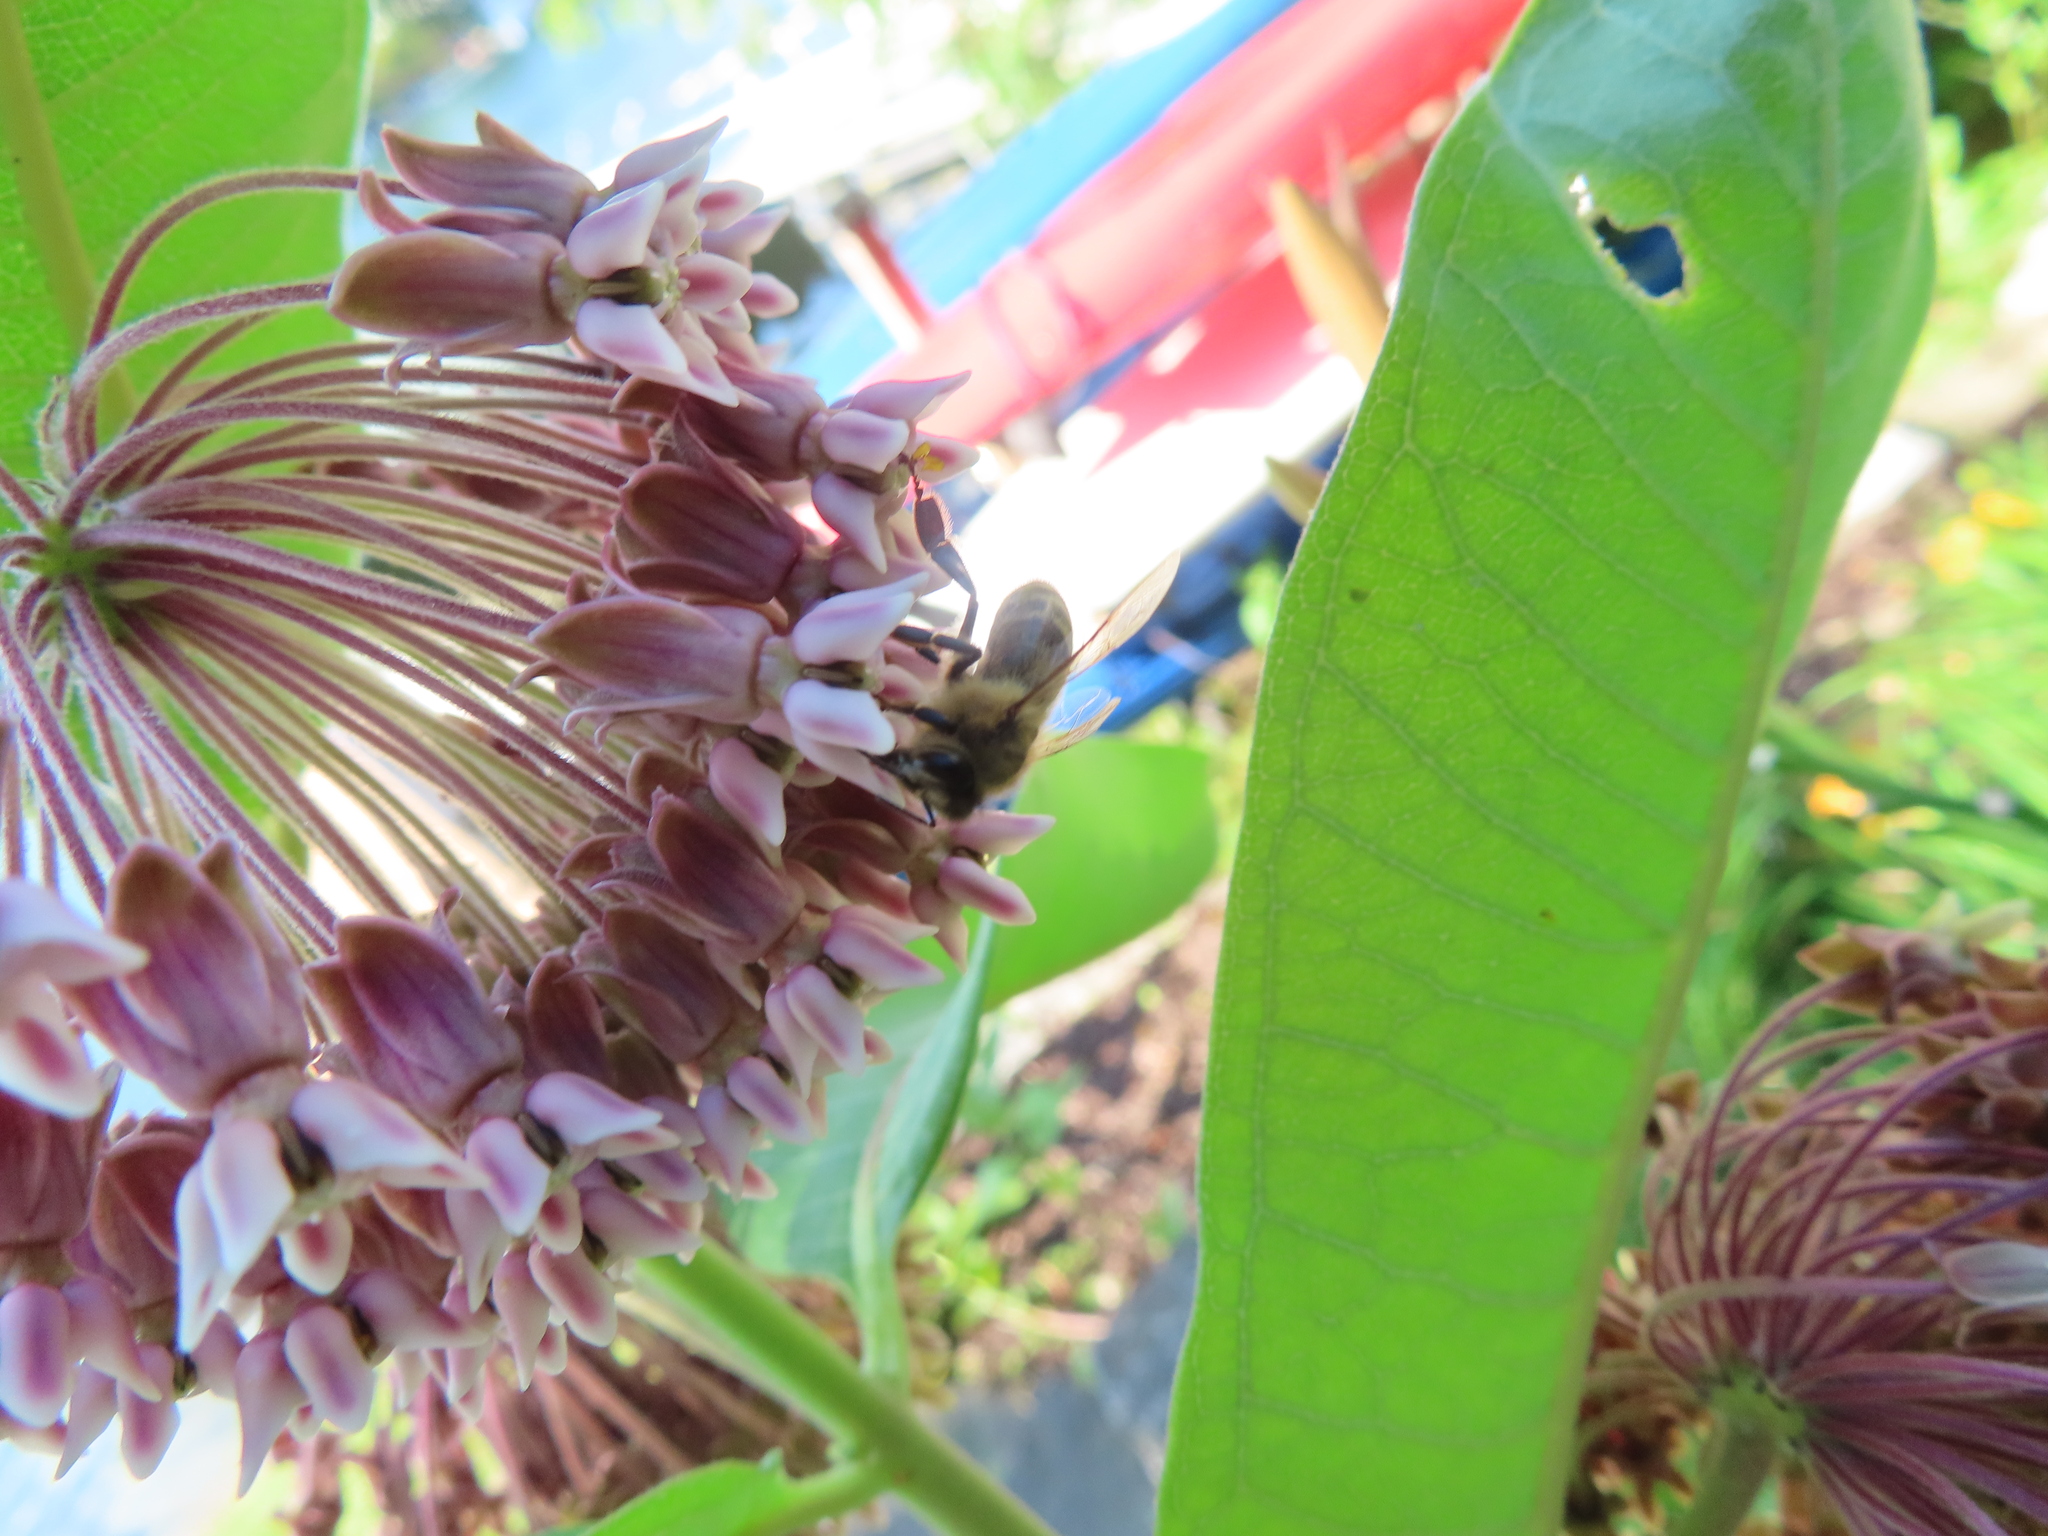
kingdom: Animalia
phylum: Arthropoda
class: Insecta
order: Hymenoptera
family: Apidae
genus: Apis
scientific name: Apis mellifera
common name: Honey bee
